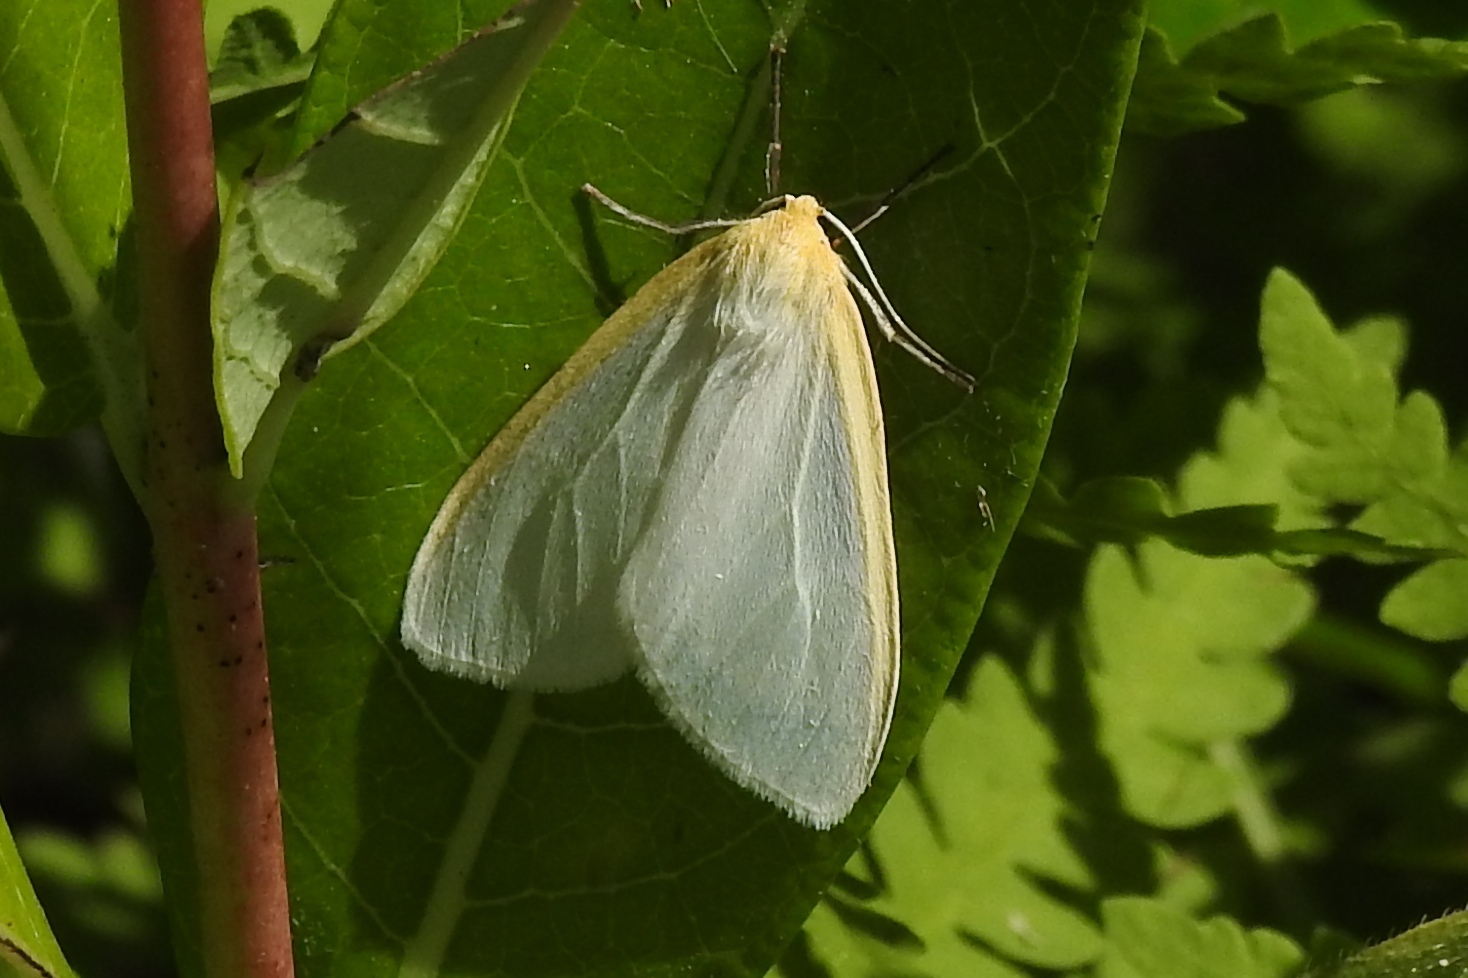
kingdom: Animalia
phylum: Arthropoda
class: Insecta
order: Lepidoptera
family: Erebidae
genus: Cycnia
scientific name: Cycnia tenera
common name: Delicate cycnia moth
